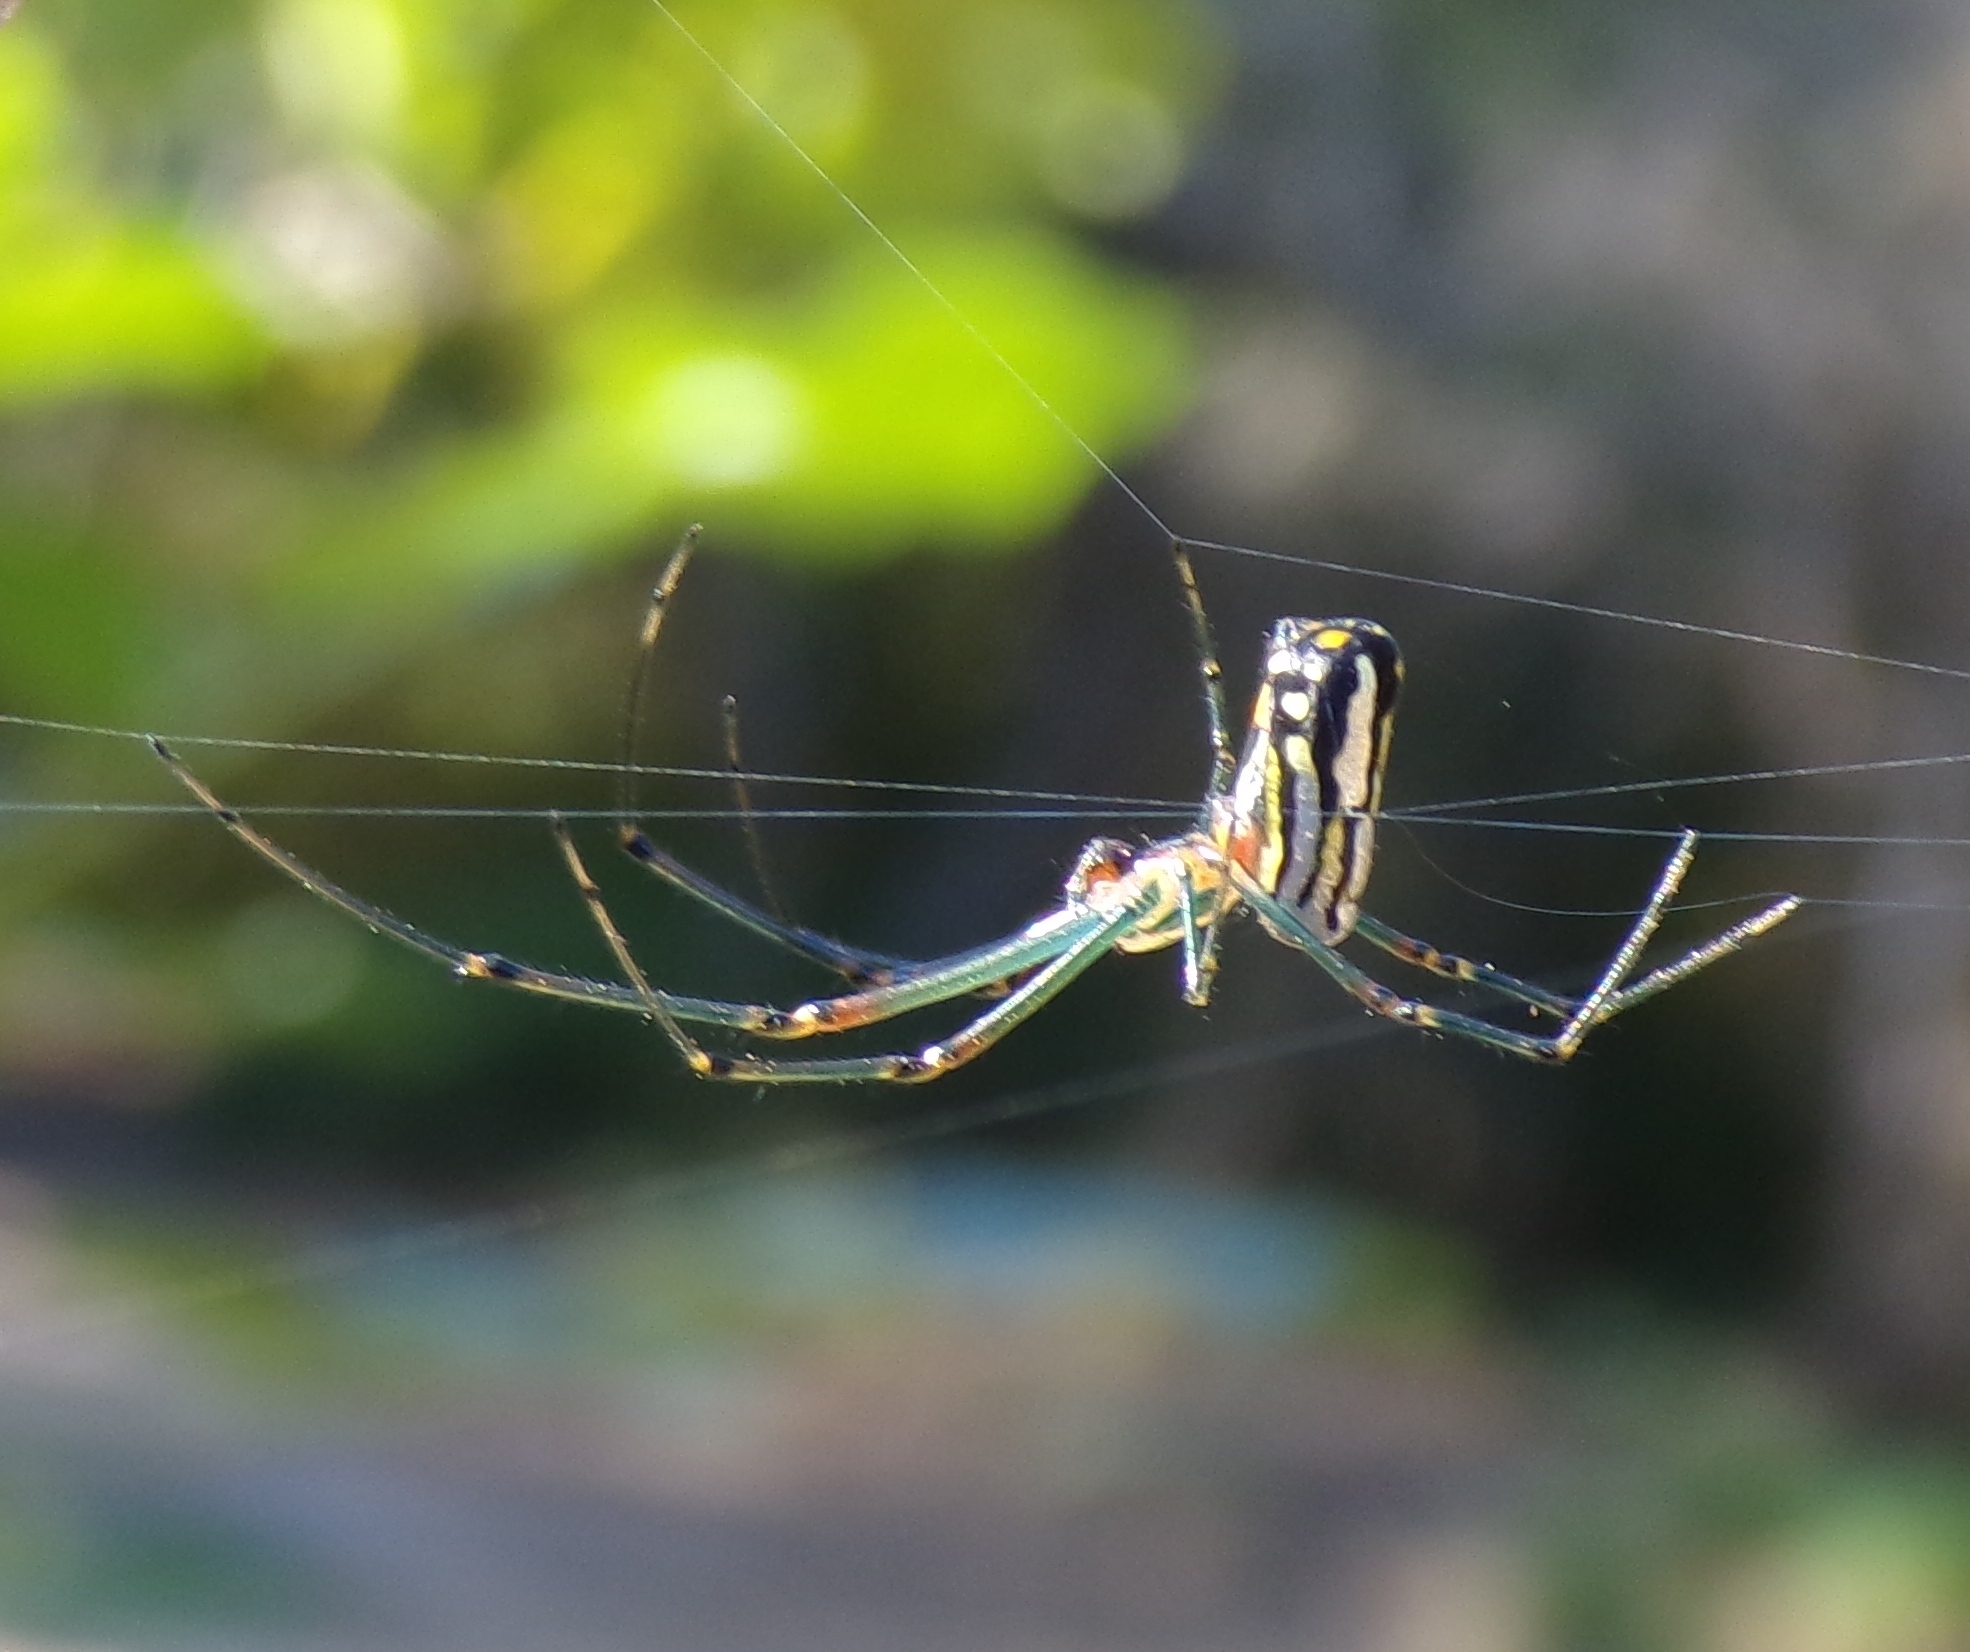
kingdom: Animalia
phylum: Arthropoda
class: Arachnida
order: Araneae
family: Tetragnathidae
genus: Leucauge
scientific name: Leucauge argyra
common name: Longjawed orb weavers
